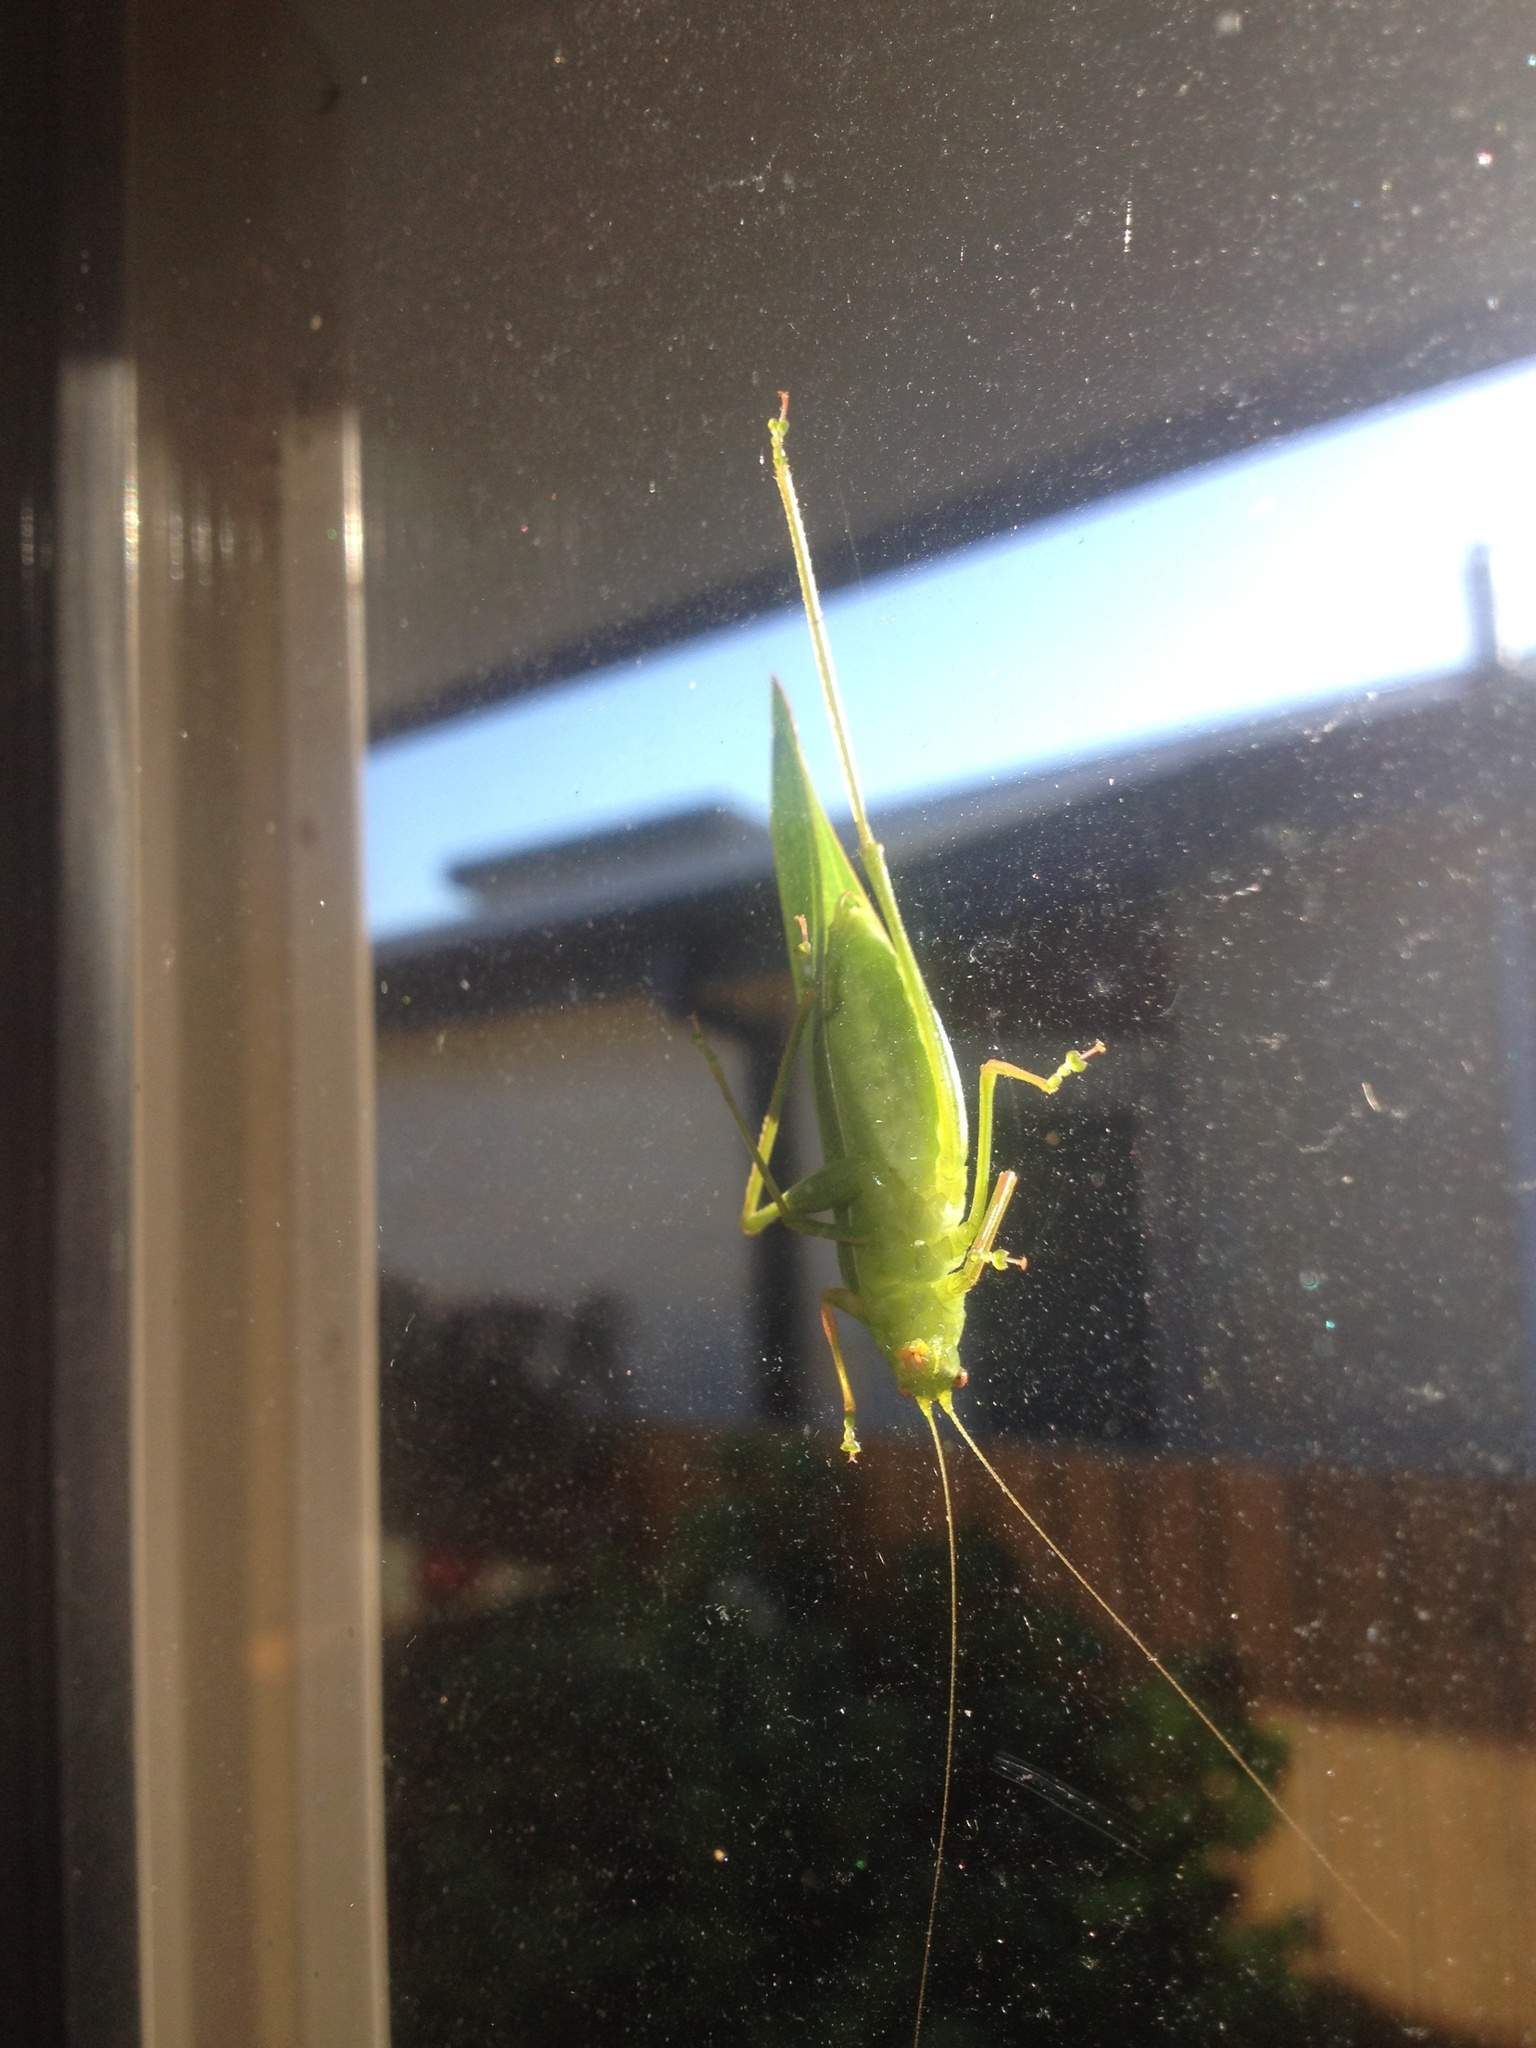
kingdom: Animalia
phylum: Arthropoda
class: Insecta
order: Orthoptera
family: Tettigoniidae
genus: Caedicia
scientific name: Caedicia simplex
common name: Common garden katydid
